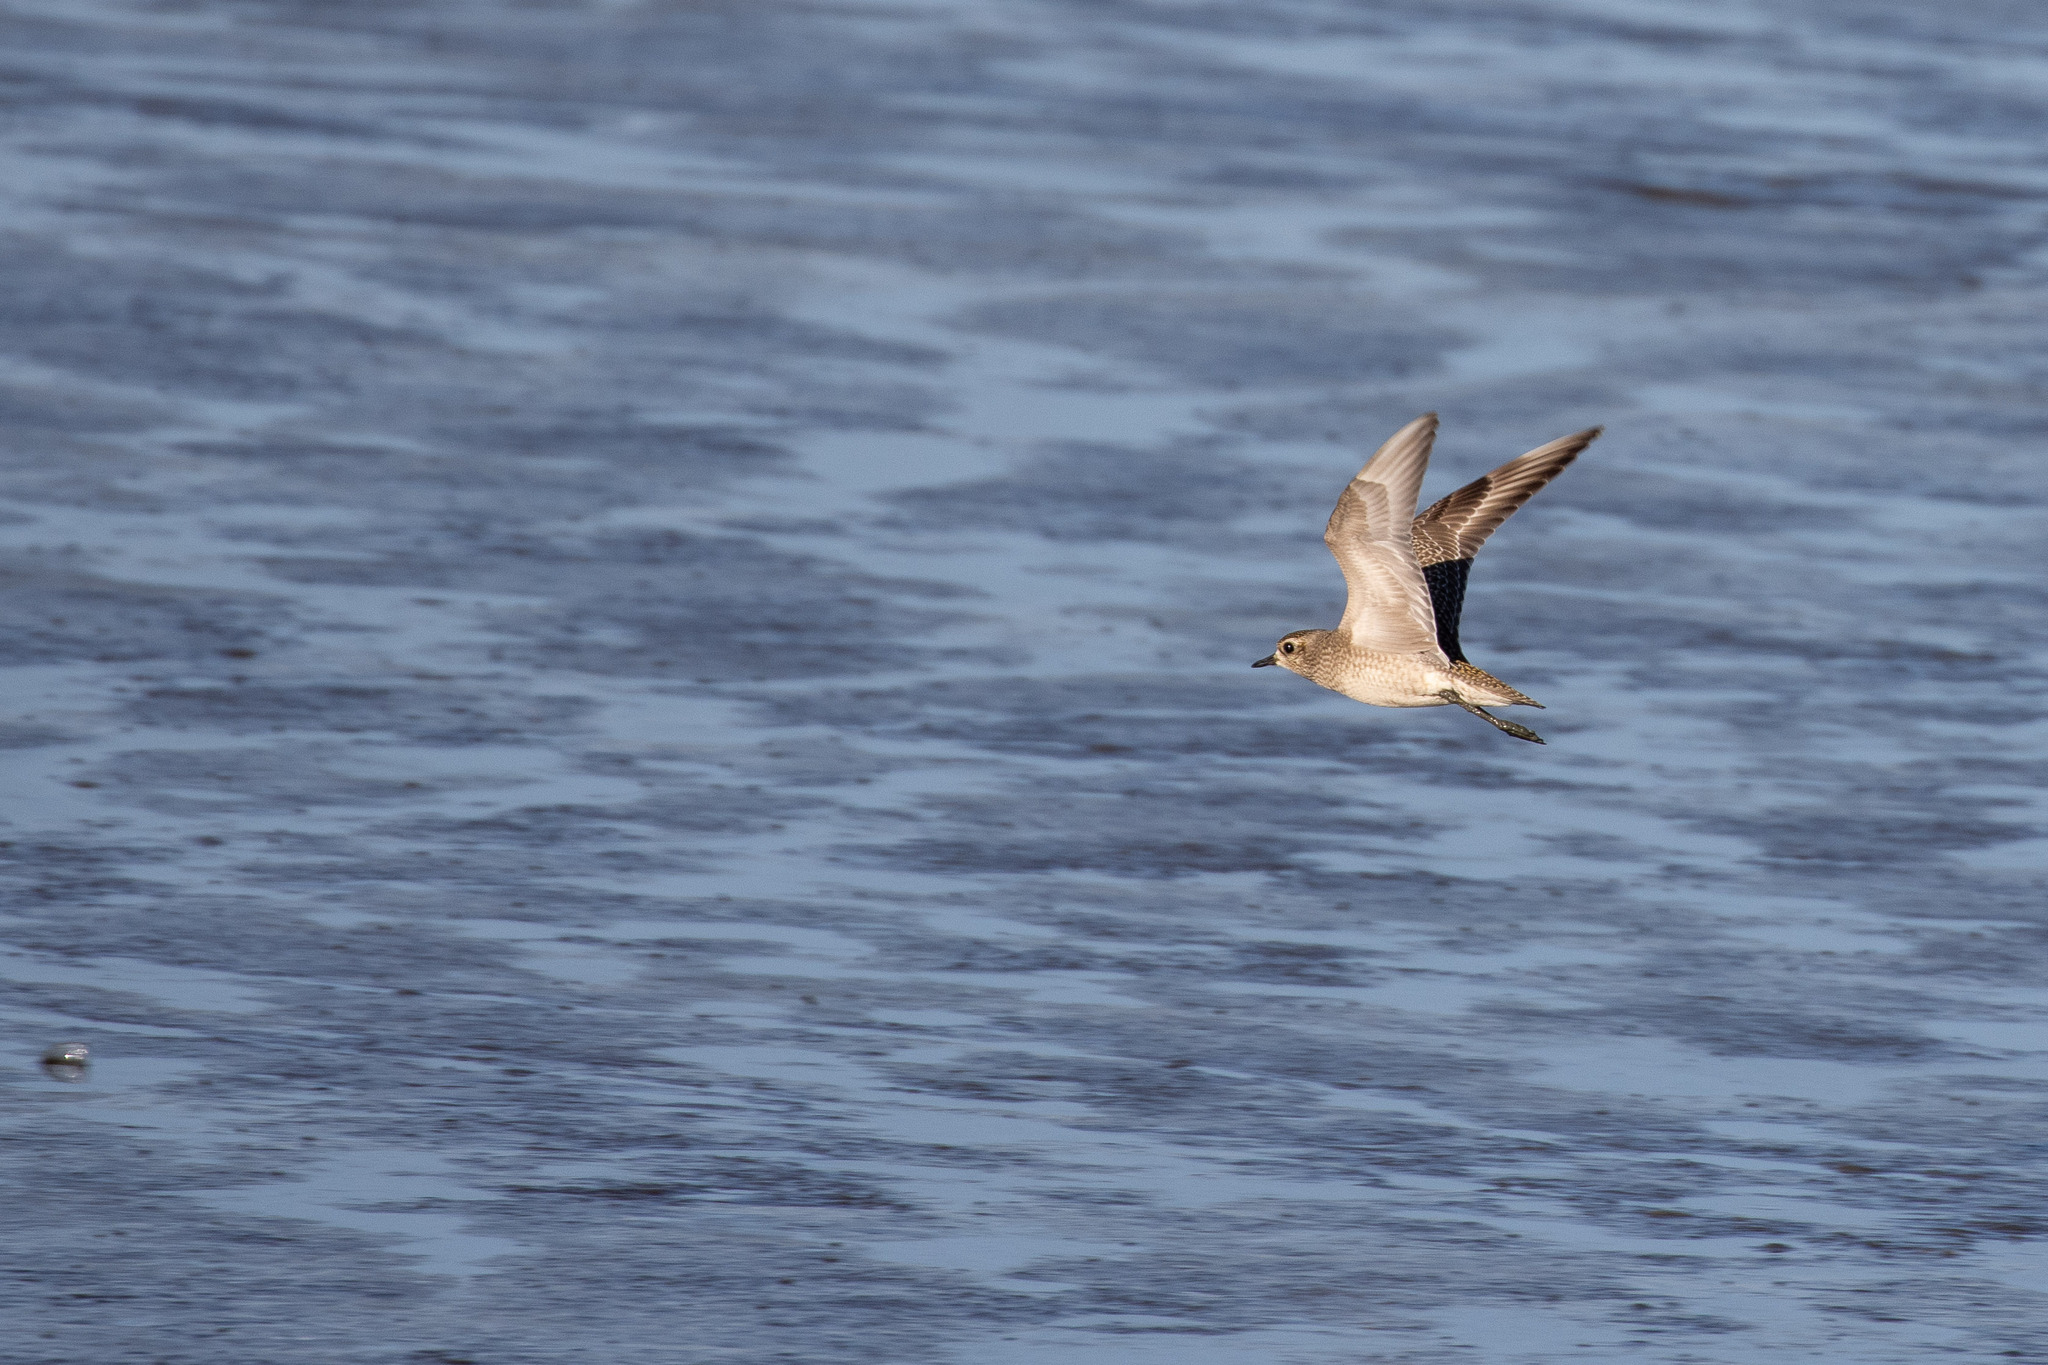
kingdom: Animalia
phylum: Chordata
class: Aves
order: Charadriiformes
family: Charadriidae
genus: Pluvialis
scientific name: Pluvialis dominica
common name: American golden plover
